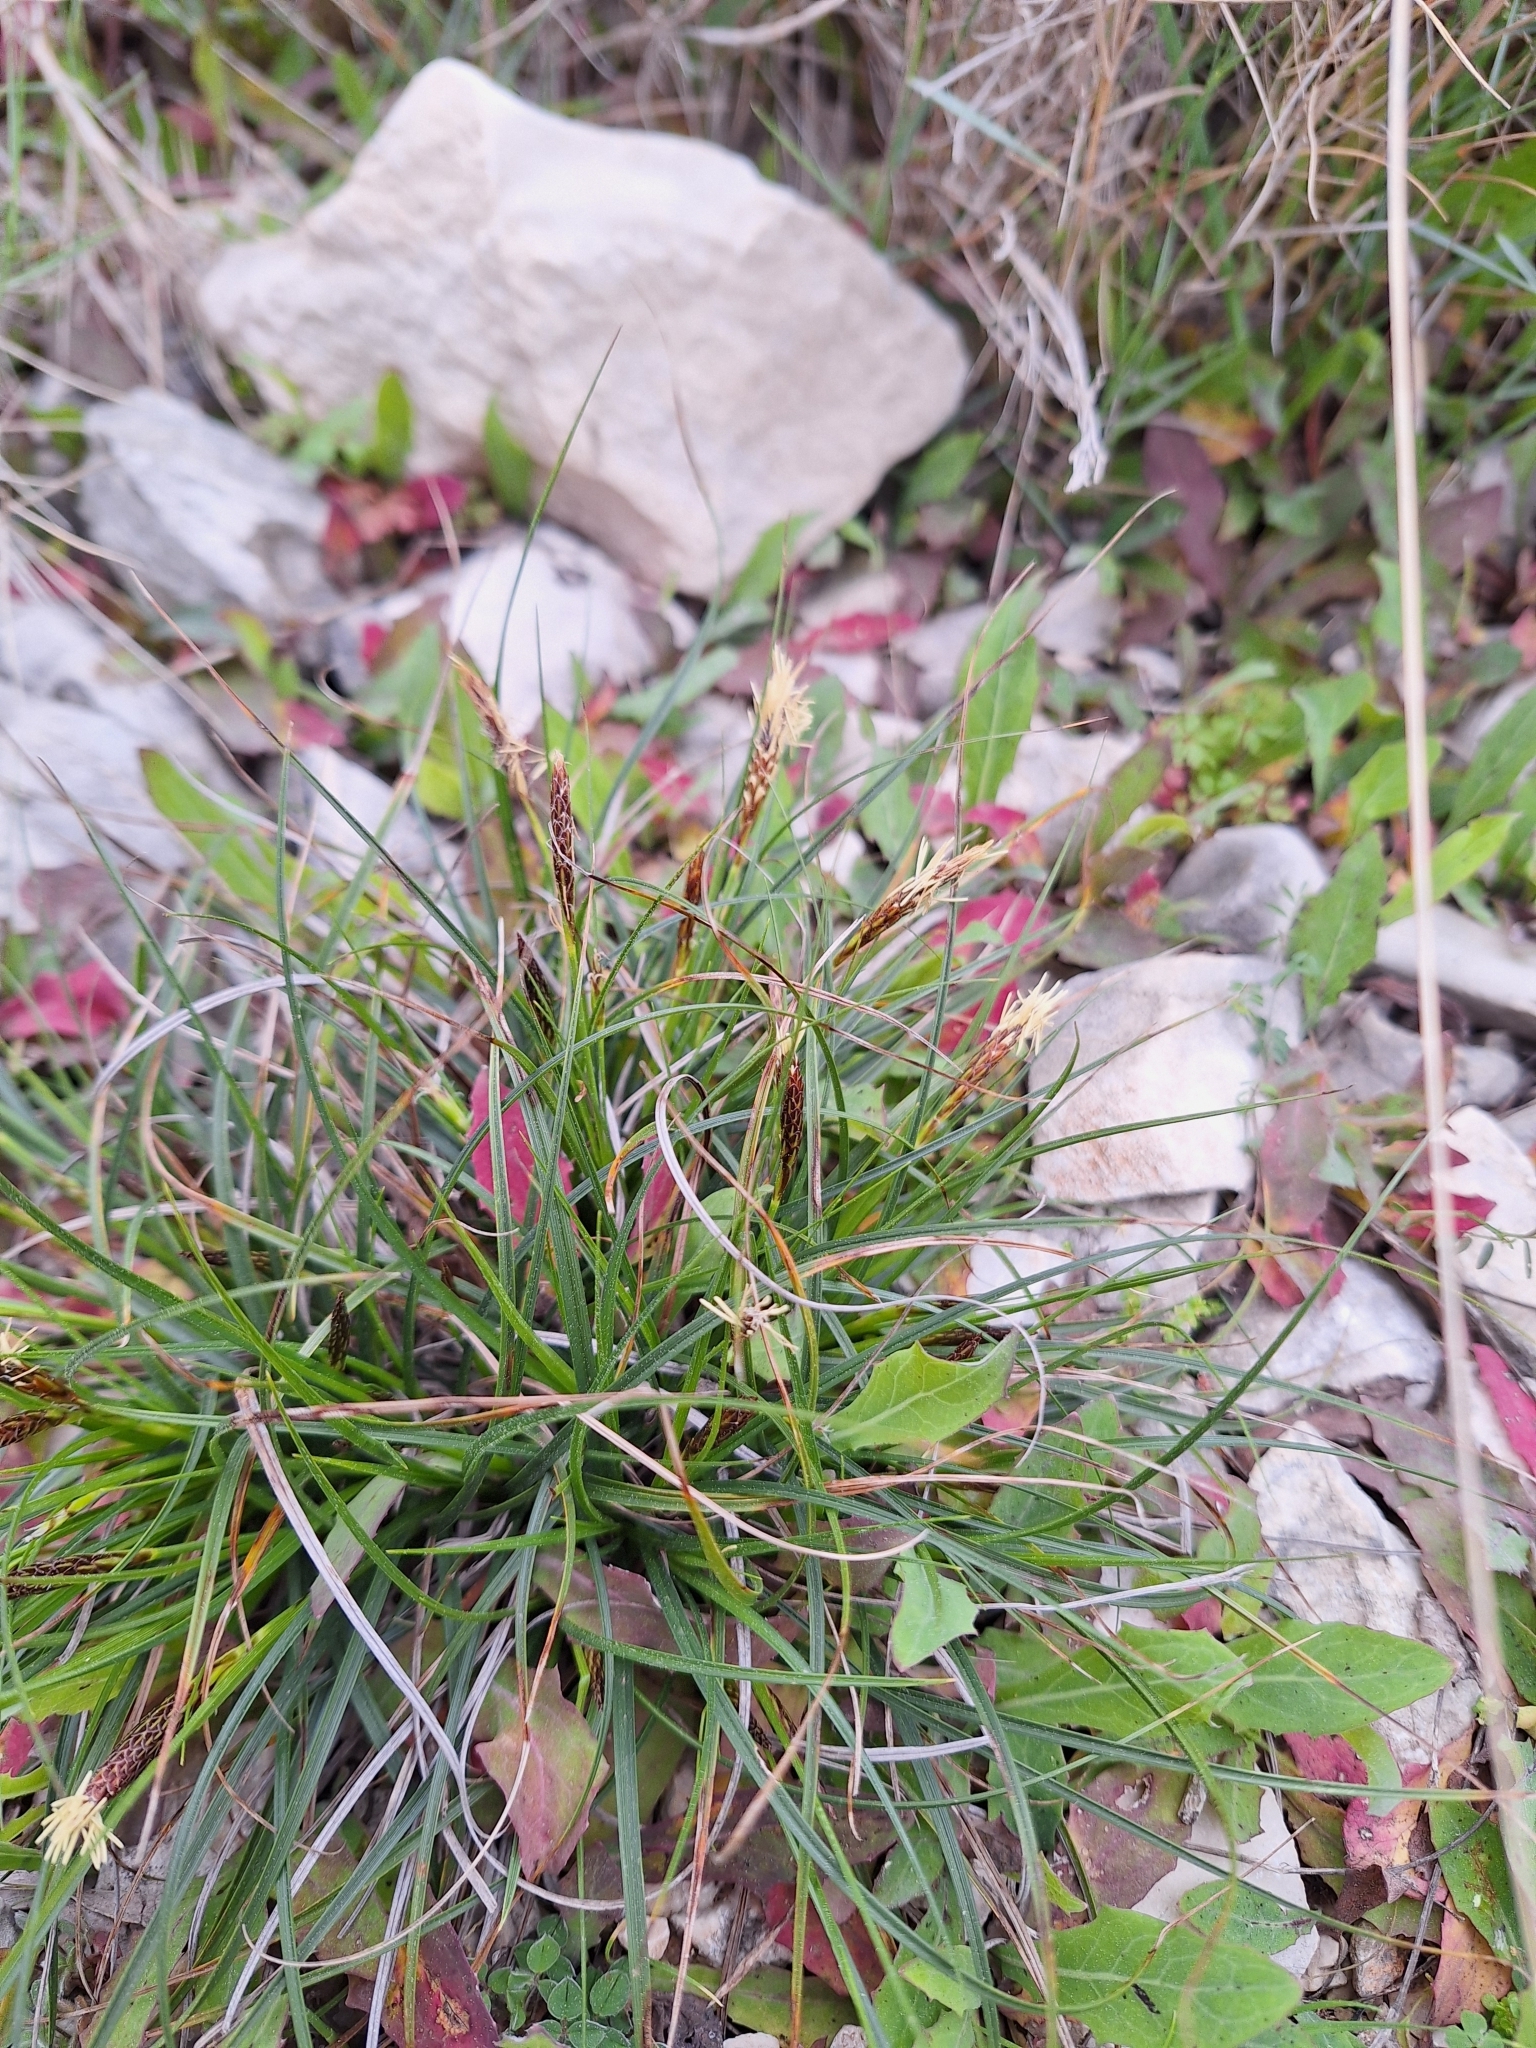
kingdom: Plantae
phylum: Tracheophyta
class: Liliopsida
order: Poales
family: Cyperaceae
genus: Carex
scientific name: Carex halleriana
